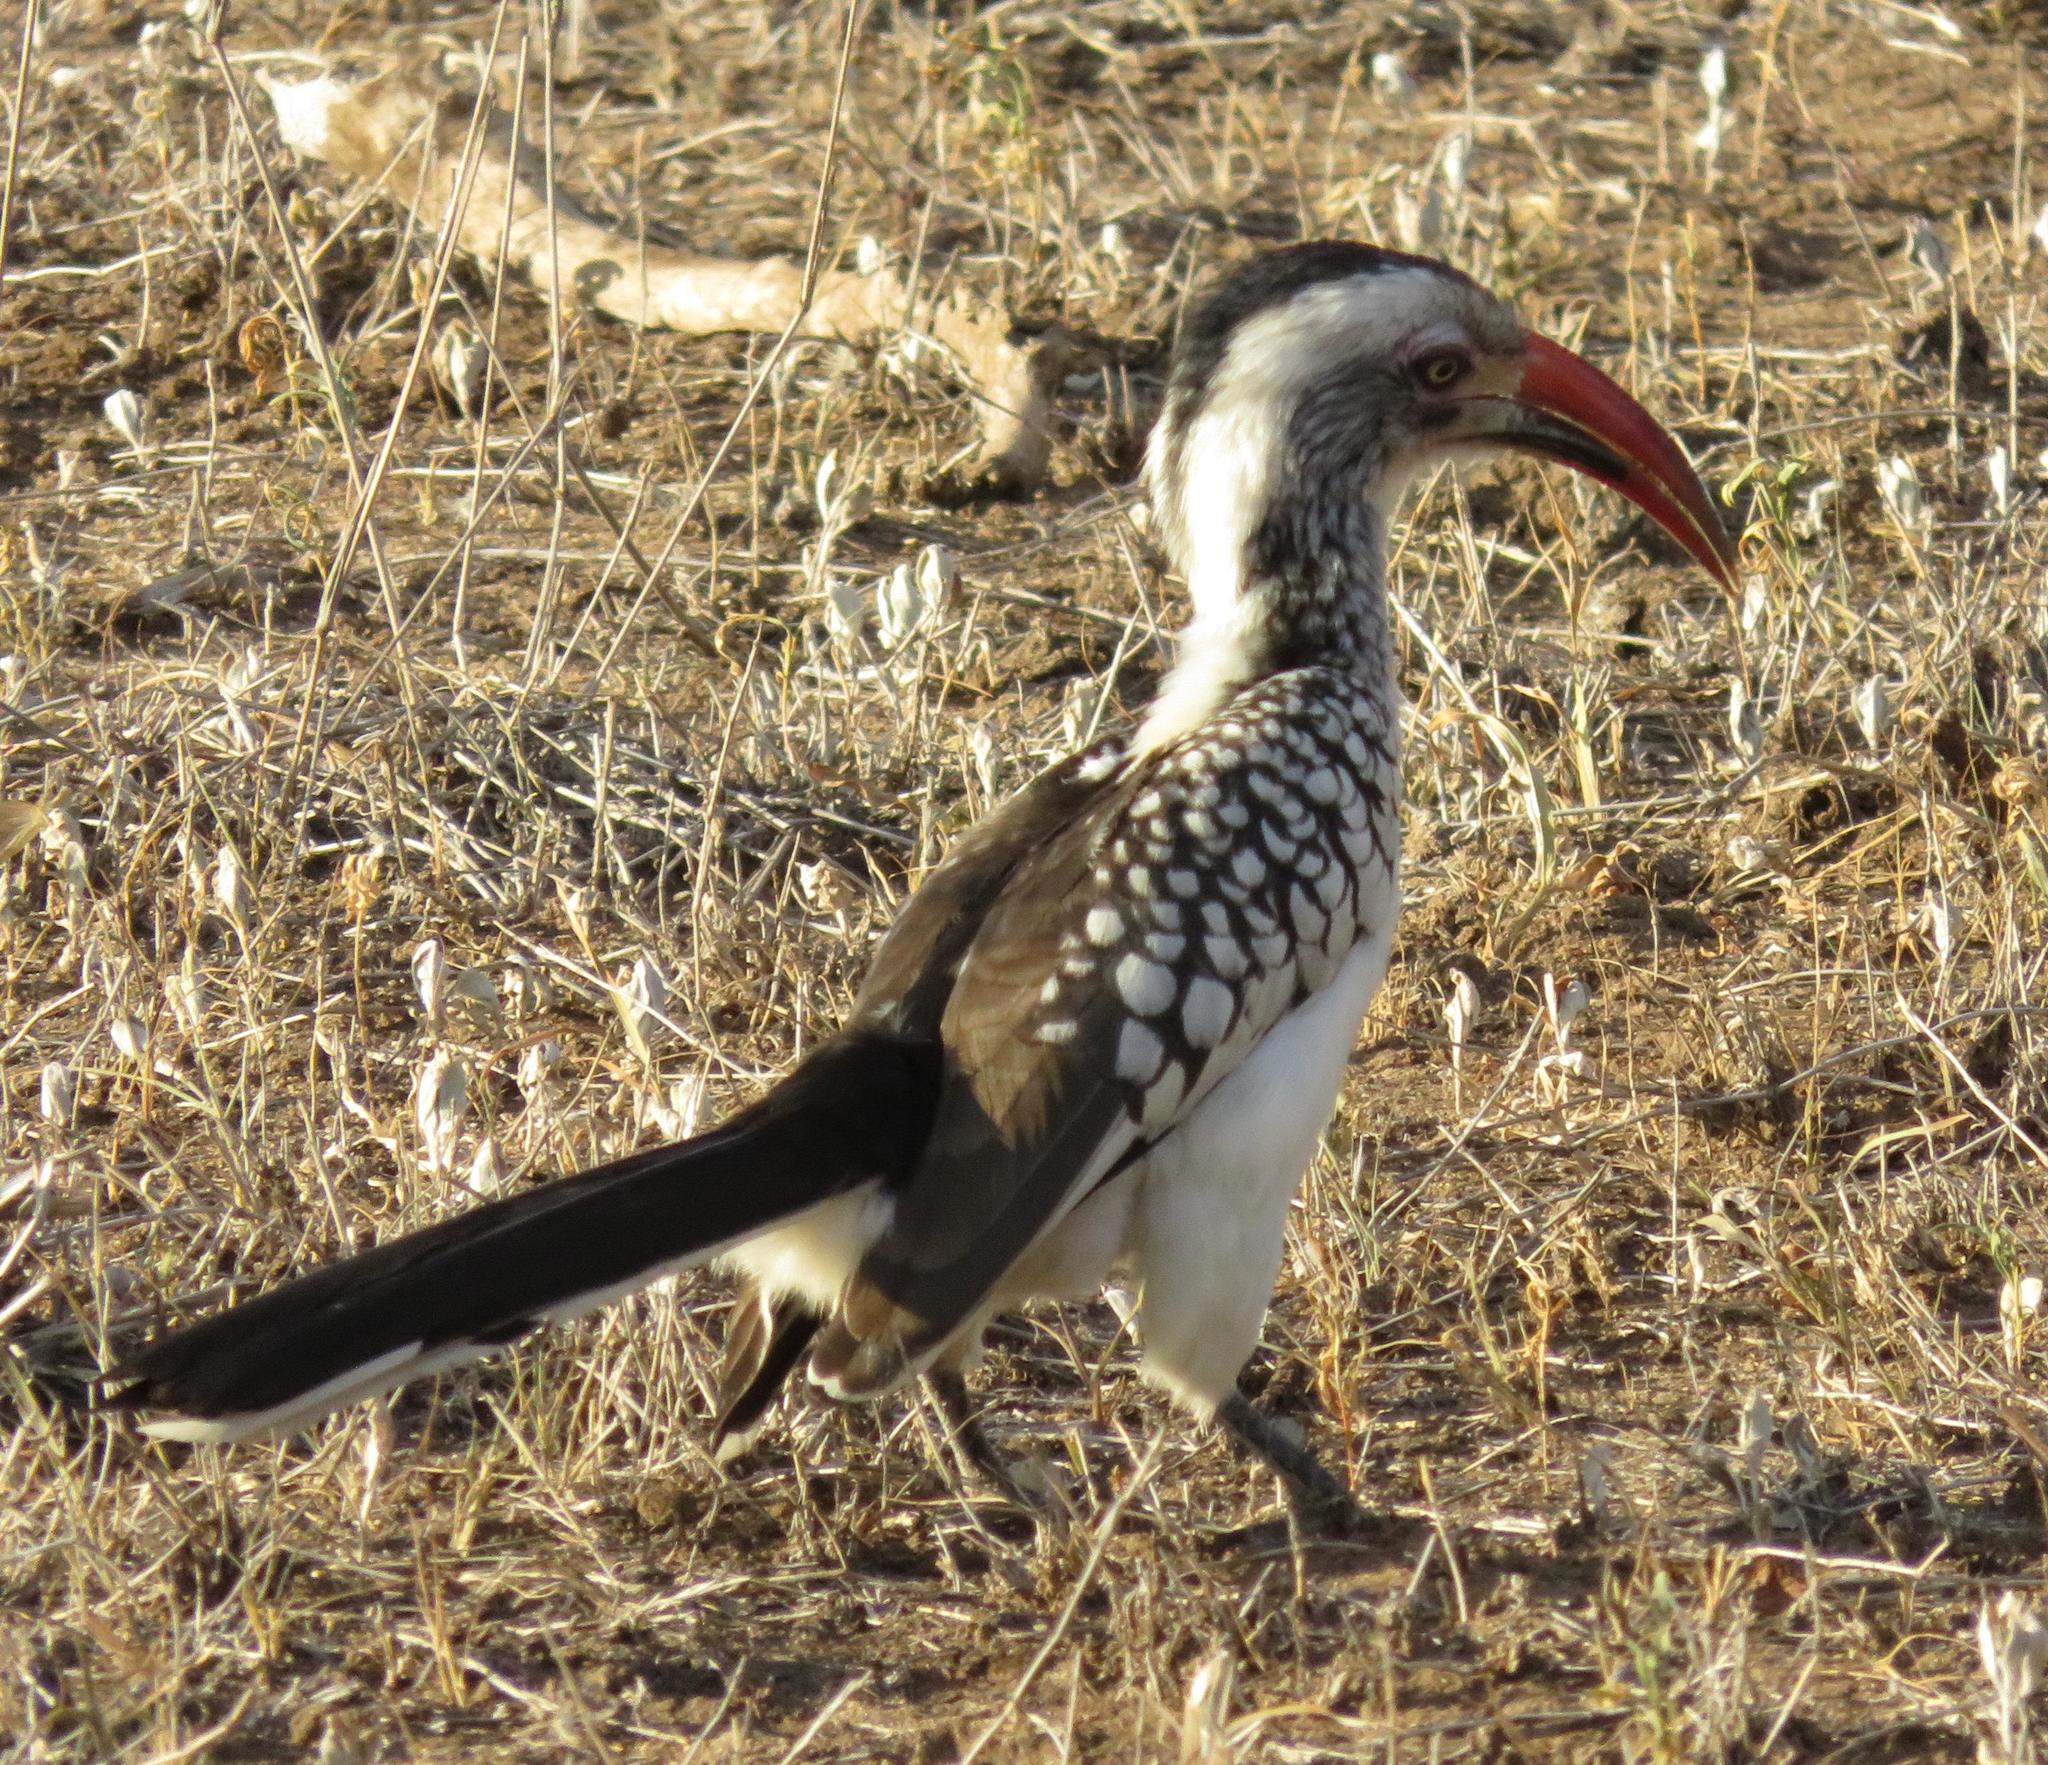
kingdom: Animalia
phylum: Chordata
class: Aves
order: Bucerotiformes
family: Bucerotidae
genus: Tockus
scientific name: Tockus rufirostris
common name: Southern red-billed hornbill
